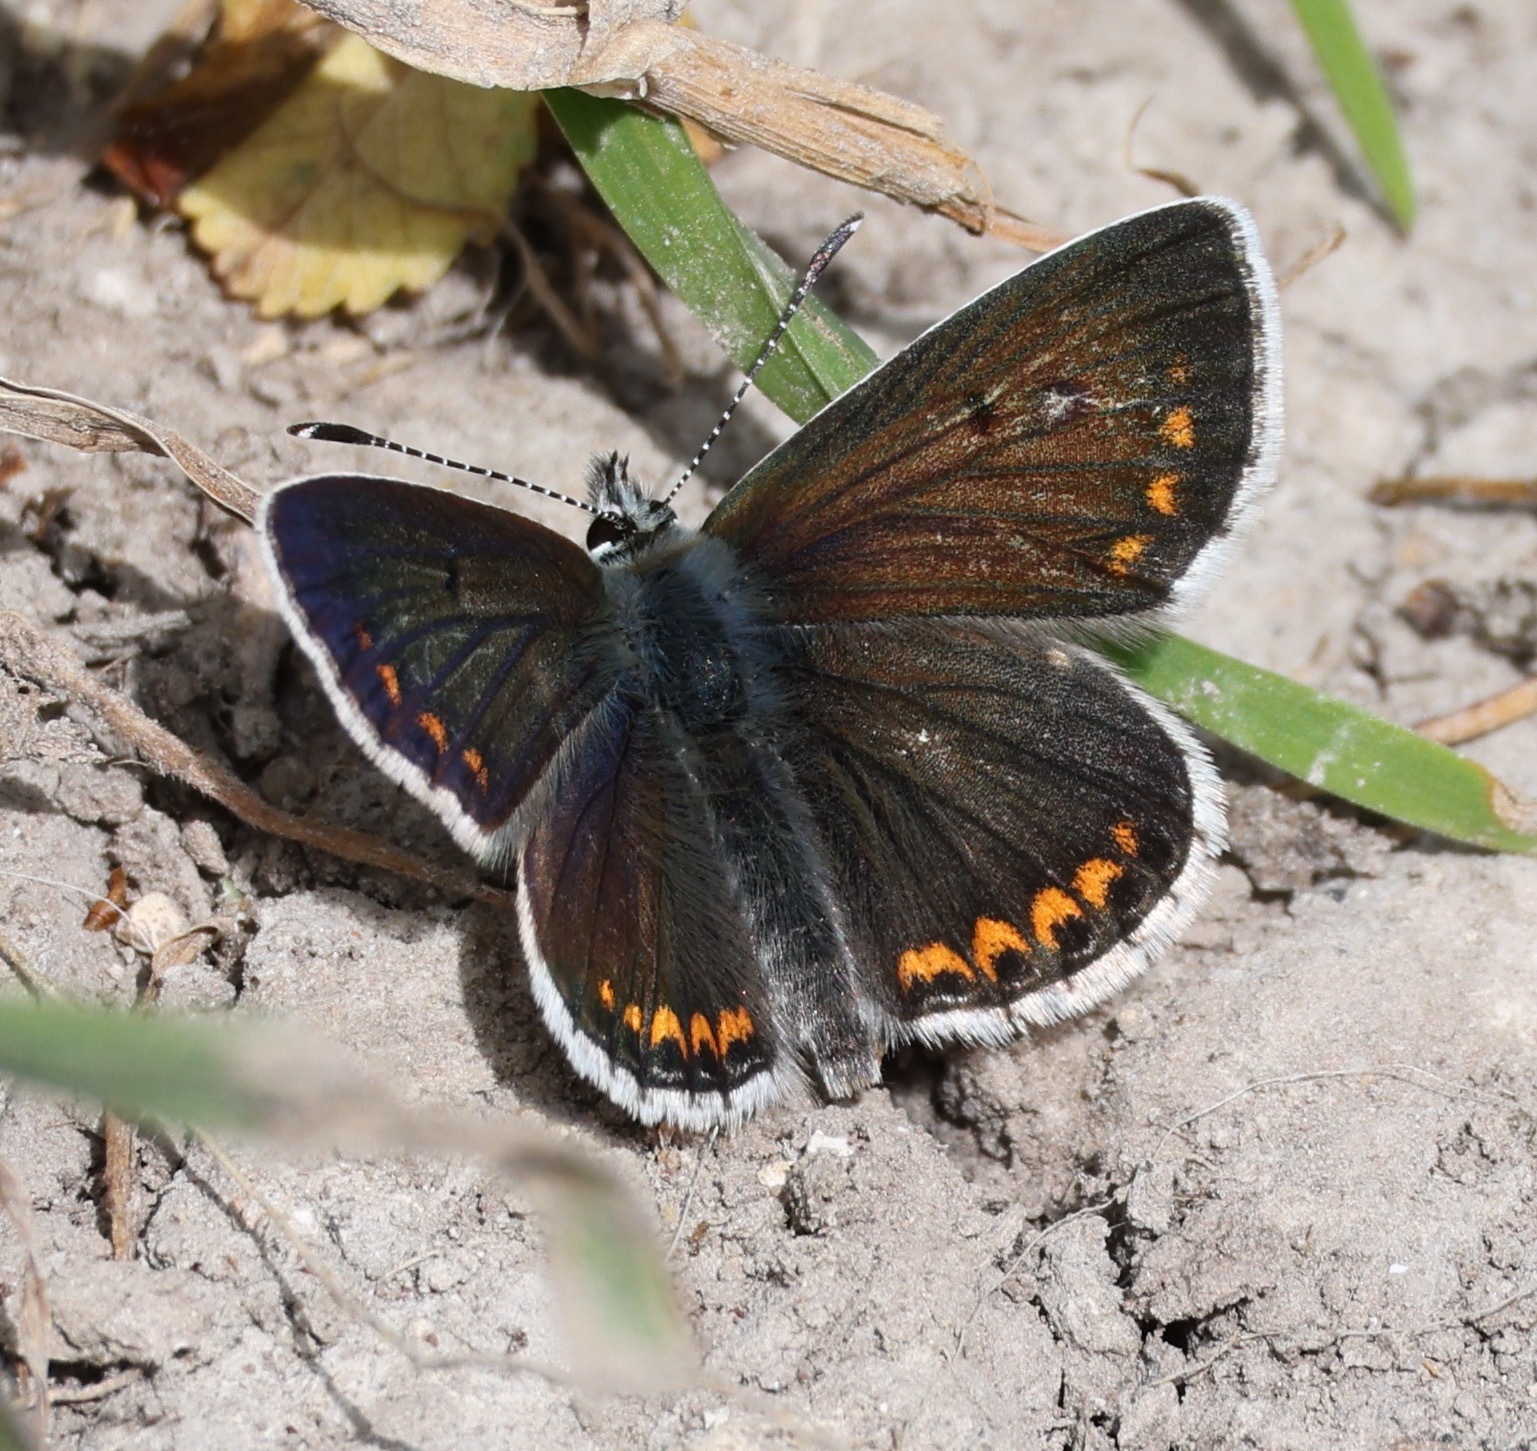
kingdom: Animalia
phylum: Arthropoda
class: Insecta
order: Lepidoptera
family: Lycaenidae
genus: Aricia
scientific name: Aricia agestis
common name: Brown argus
